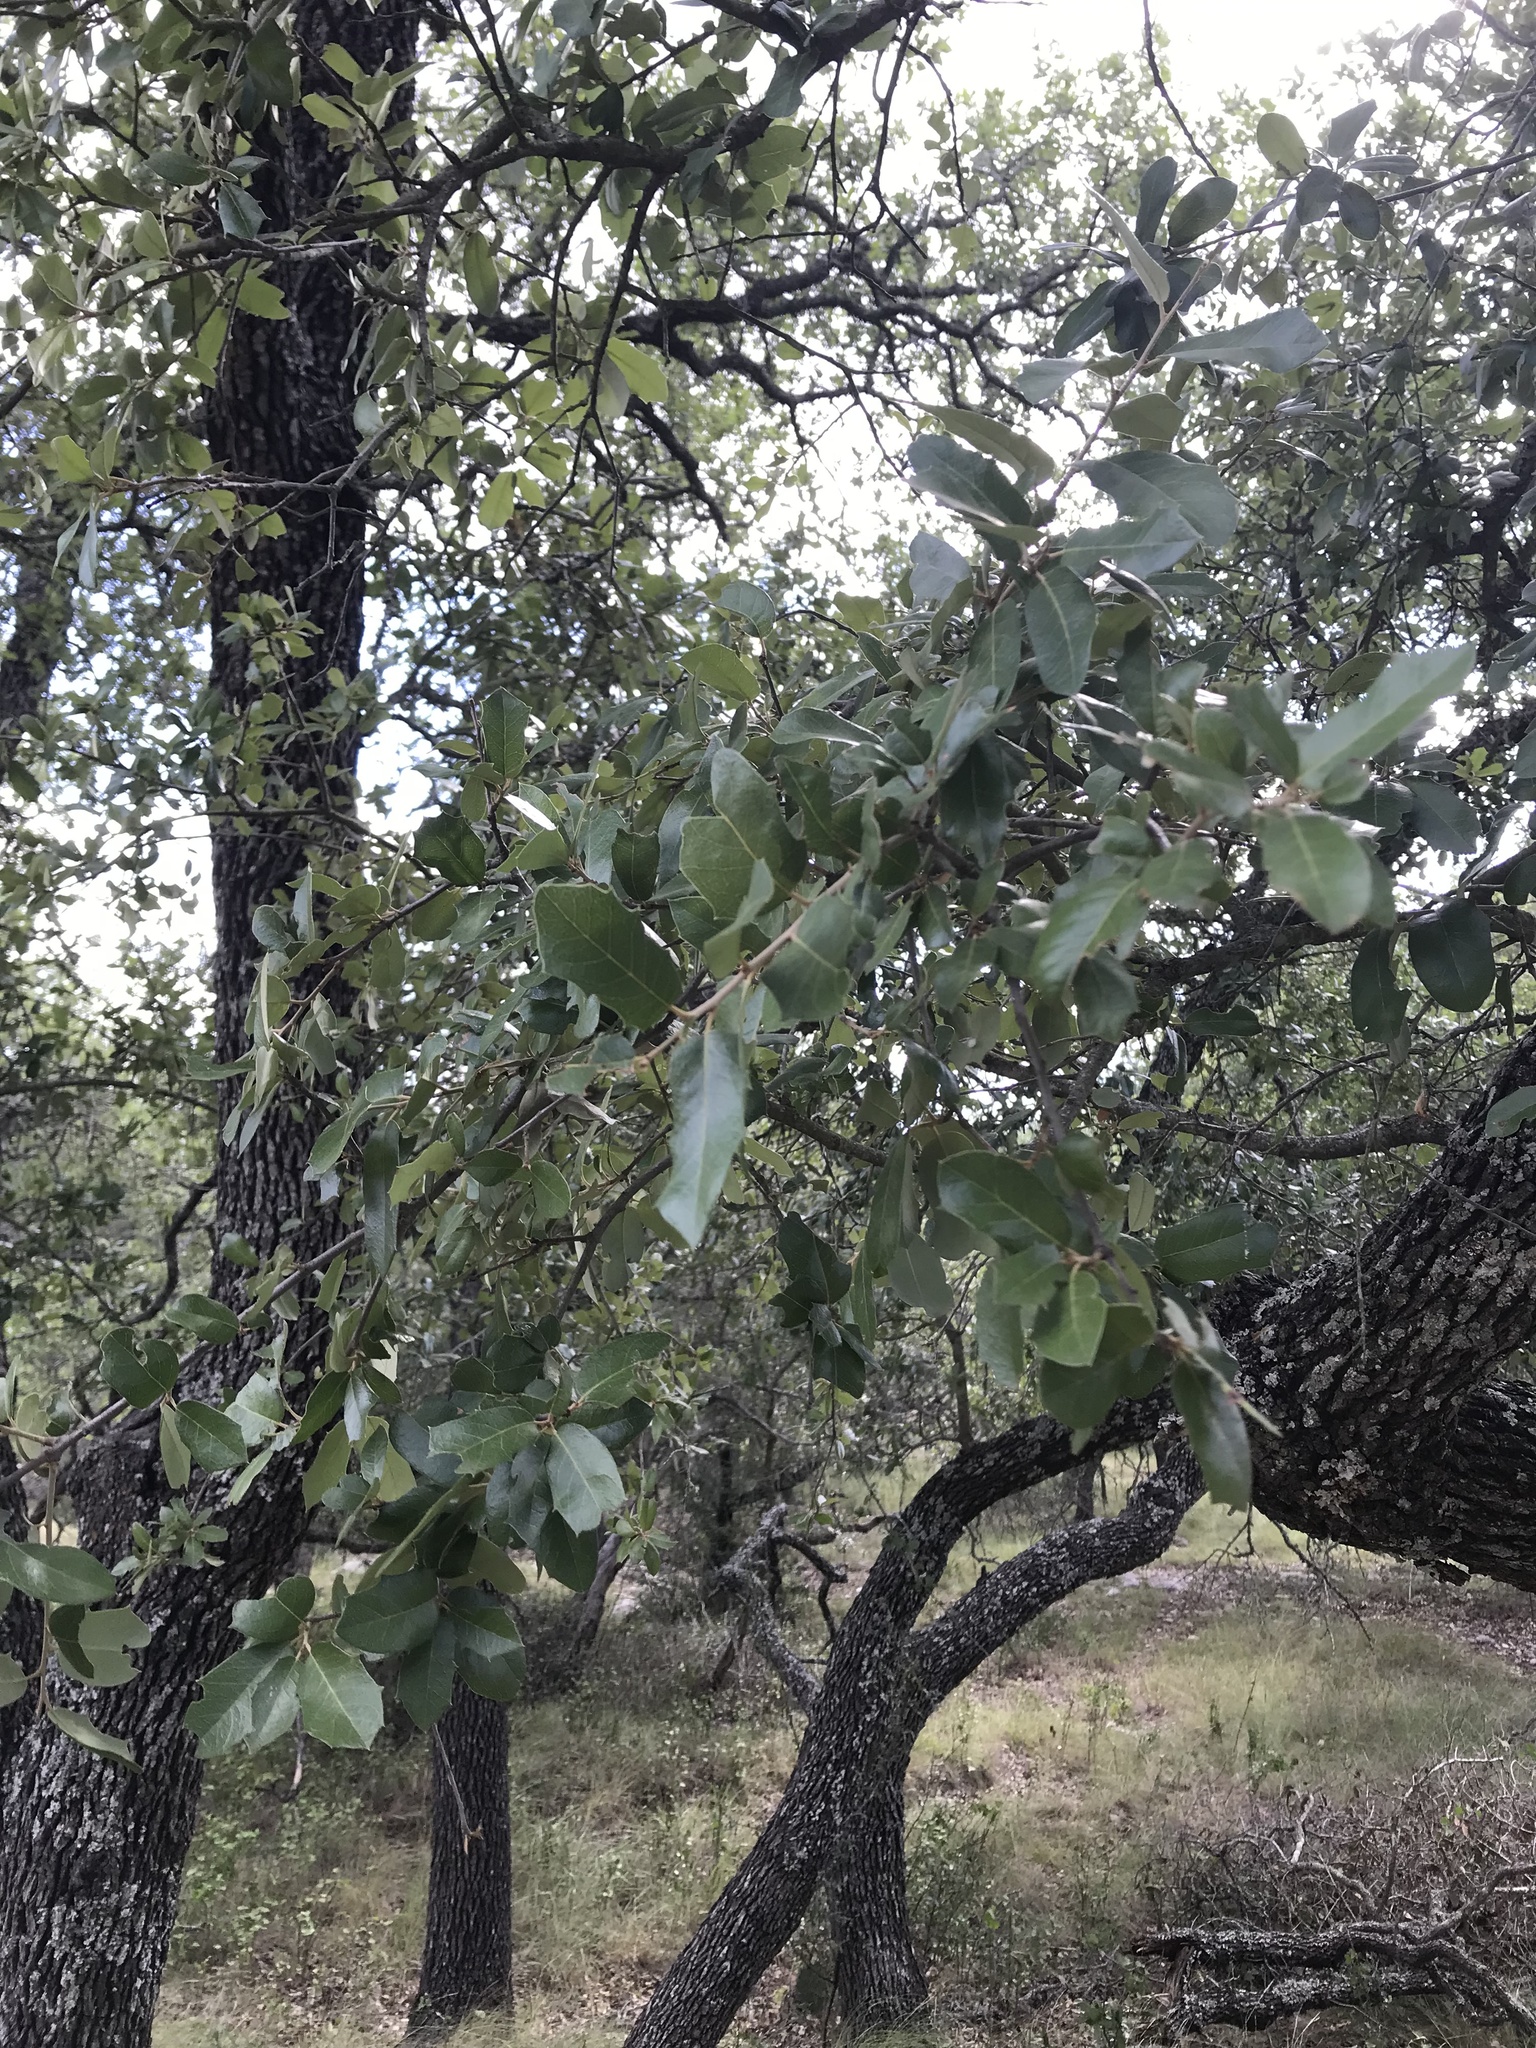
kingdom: Plantae
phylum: Tracheophyta
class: Magnoliopsida
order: Fagales
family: Fagaceae
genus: Quercus
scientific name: Quercus fusiformis
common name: Texas live oak
